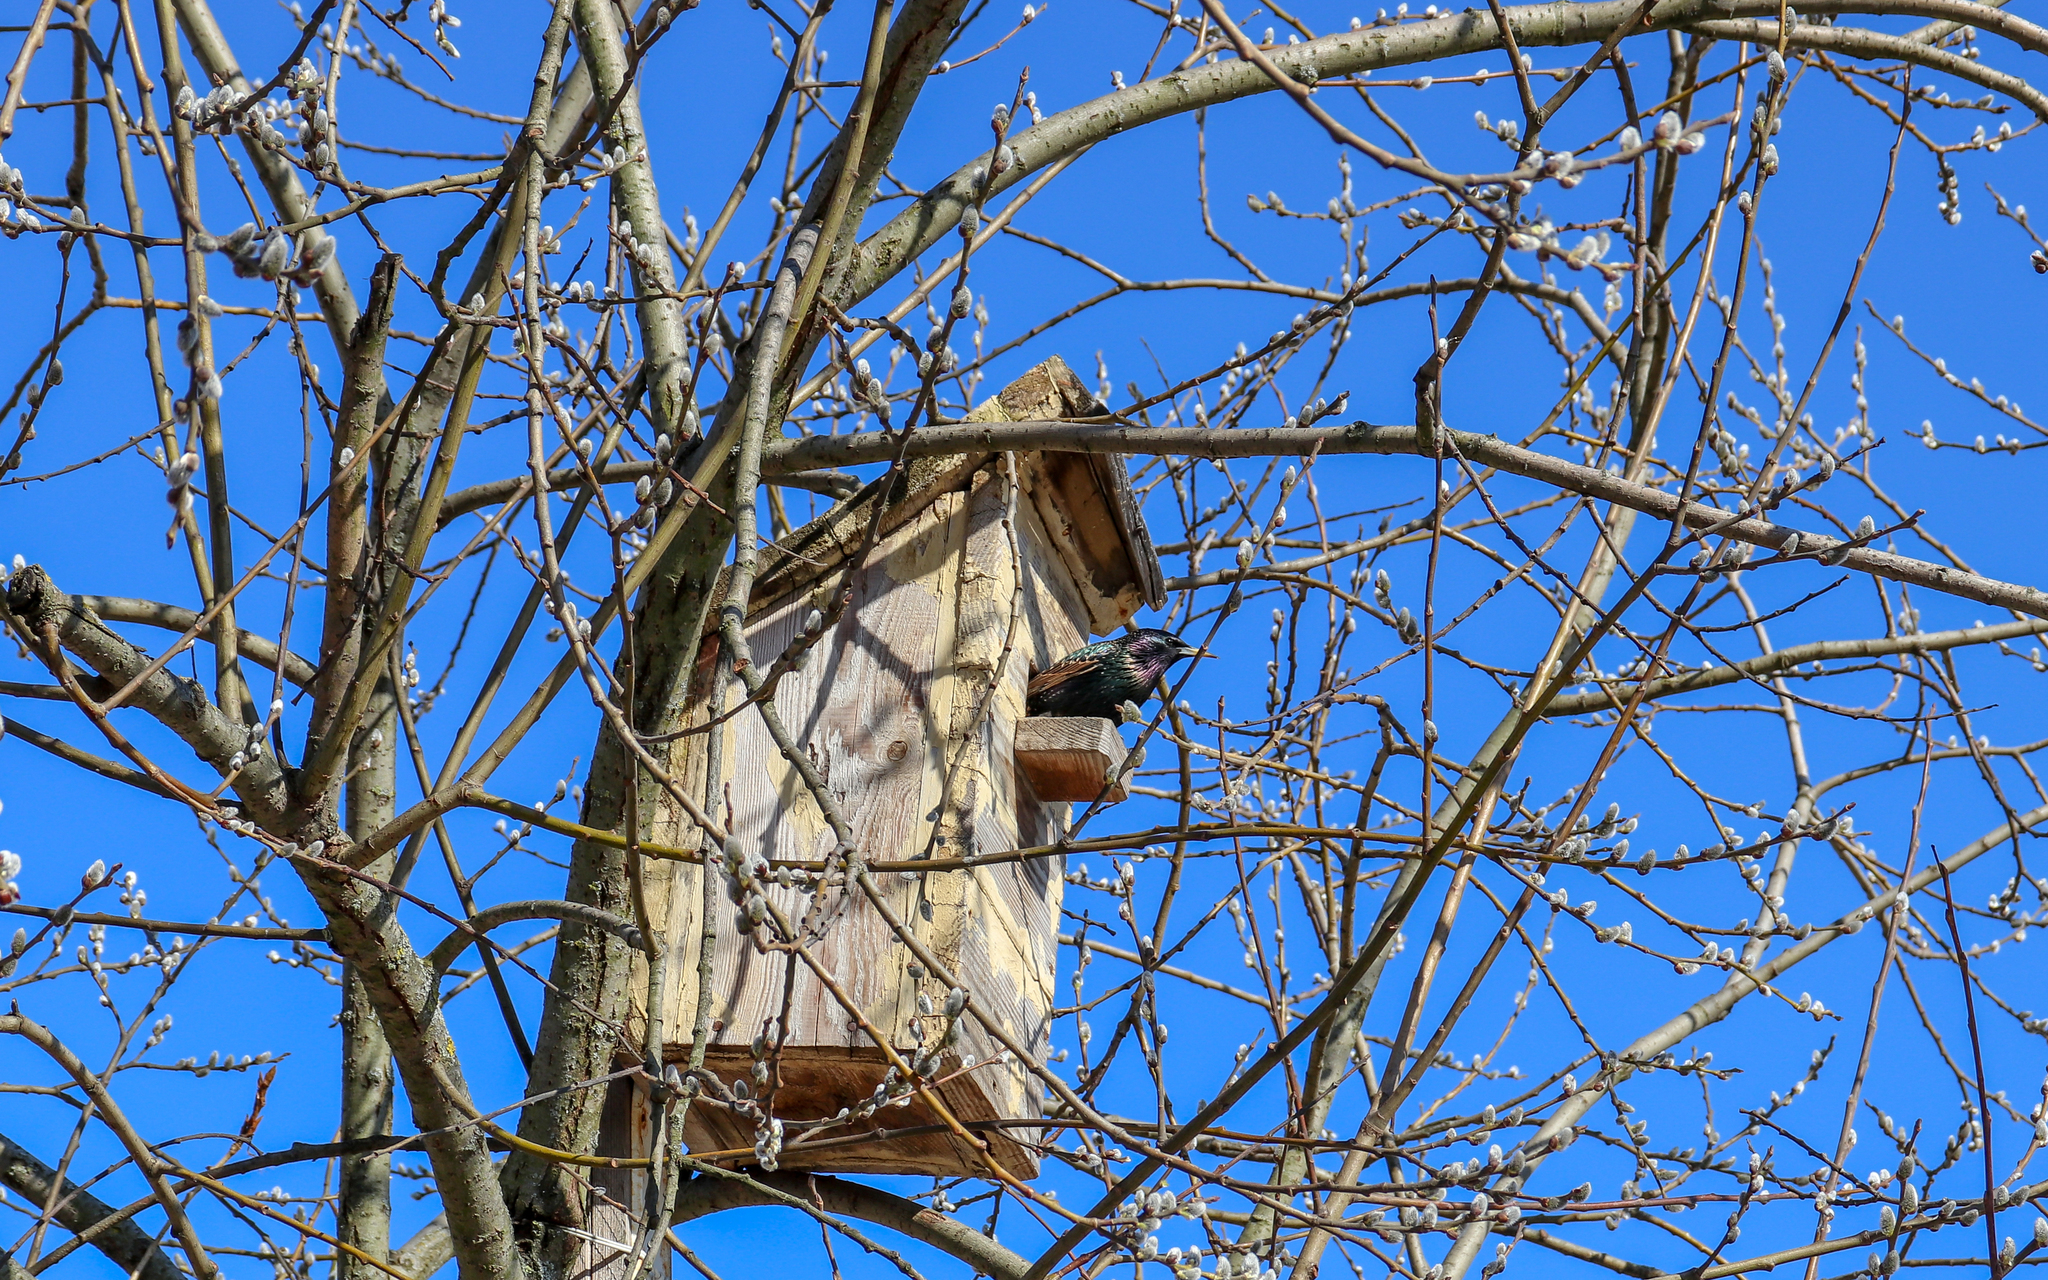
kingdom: Animalia
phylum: Chordata
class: Aves
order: Passeriformes
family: Sturnidae
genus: Sturnus
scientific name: Sturnus vulgaris
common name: Common starling
